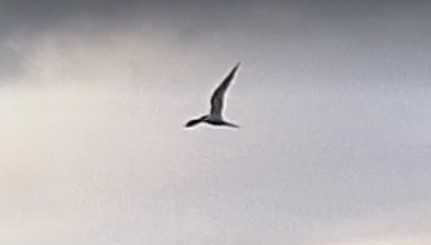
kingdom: Animalia
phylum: Chordata
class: Aves
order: Charadriiformes
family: Laridae
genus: Sterna
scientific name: Sterna hirundo
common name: Common tern
